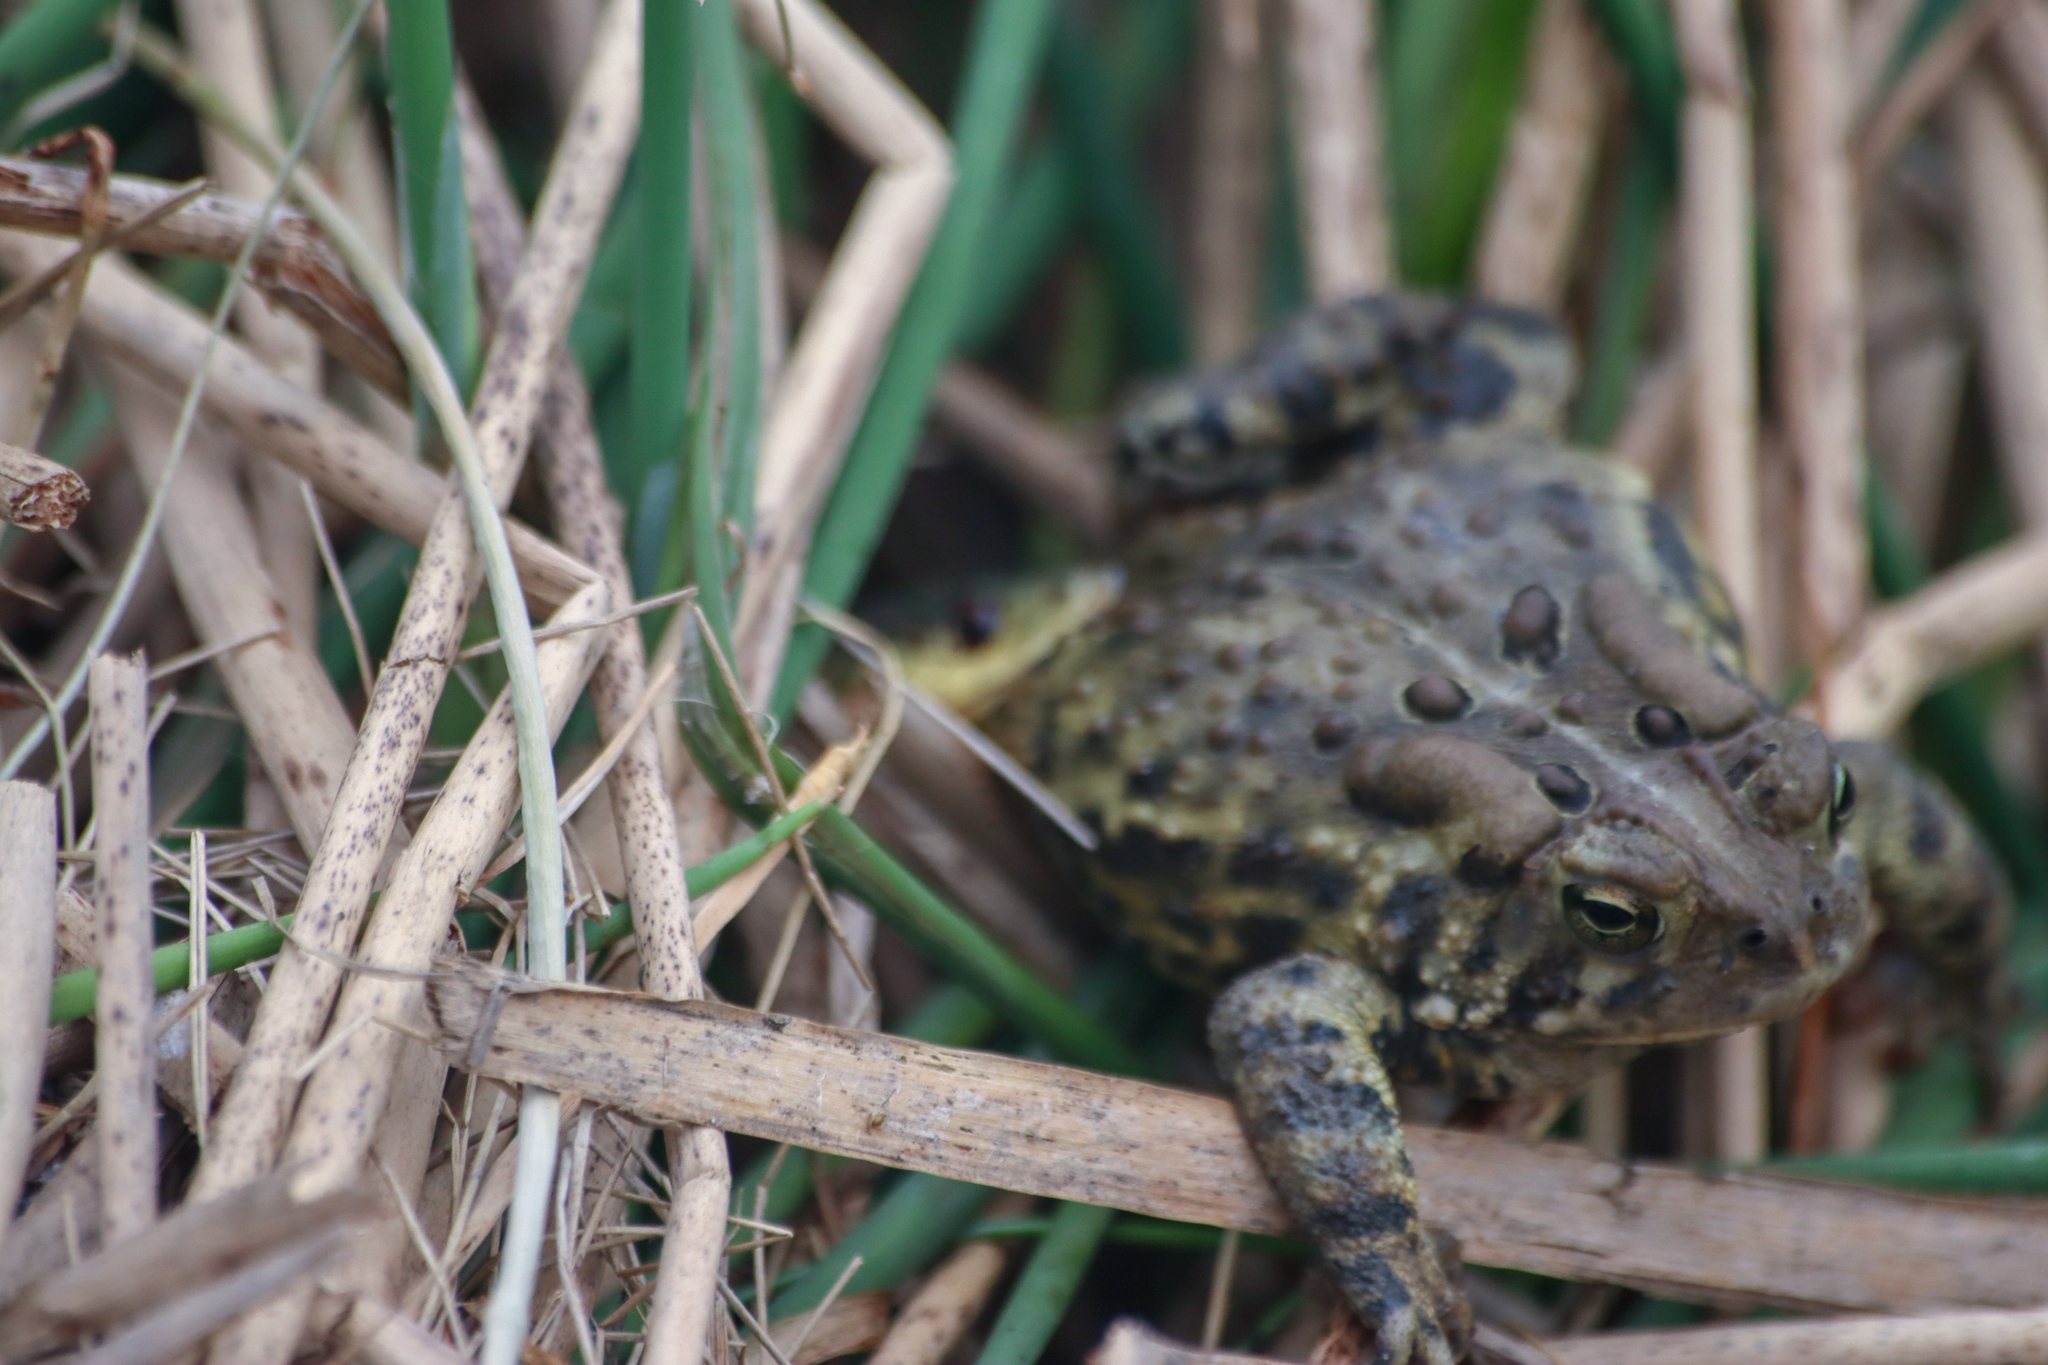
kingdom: Animalia
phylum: Chordata
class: Amphibia
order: Anura
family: Bufonidae
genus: Anaxyrus
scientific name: Anaxyrus americanus
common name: American toad
